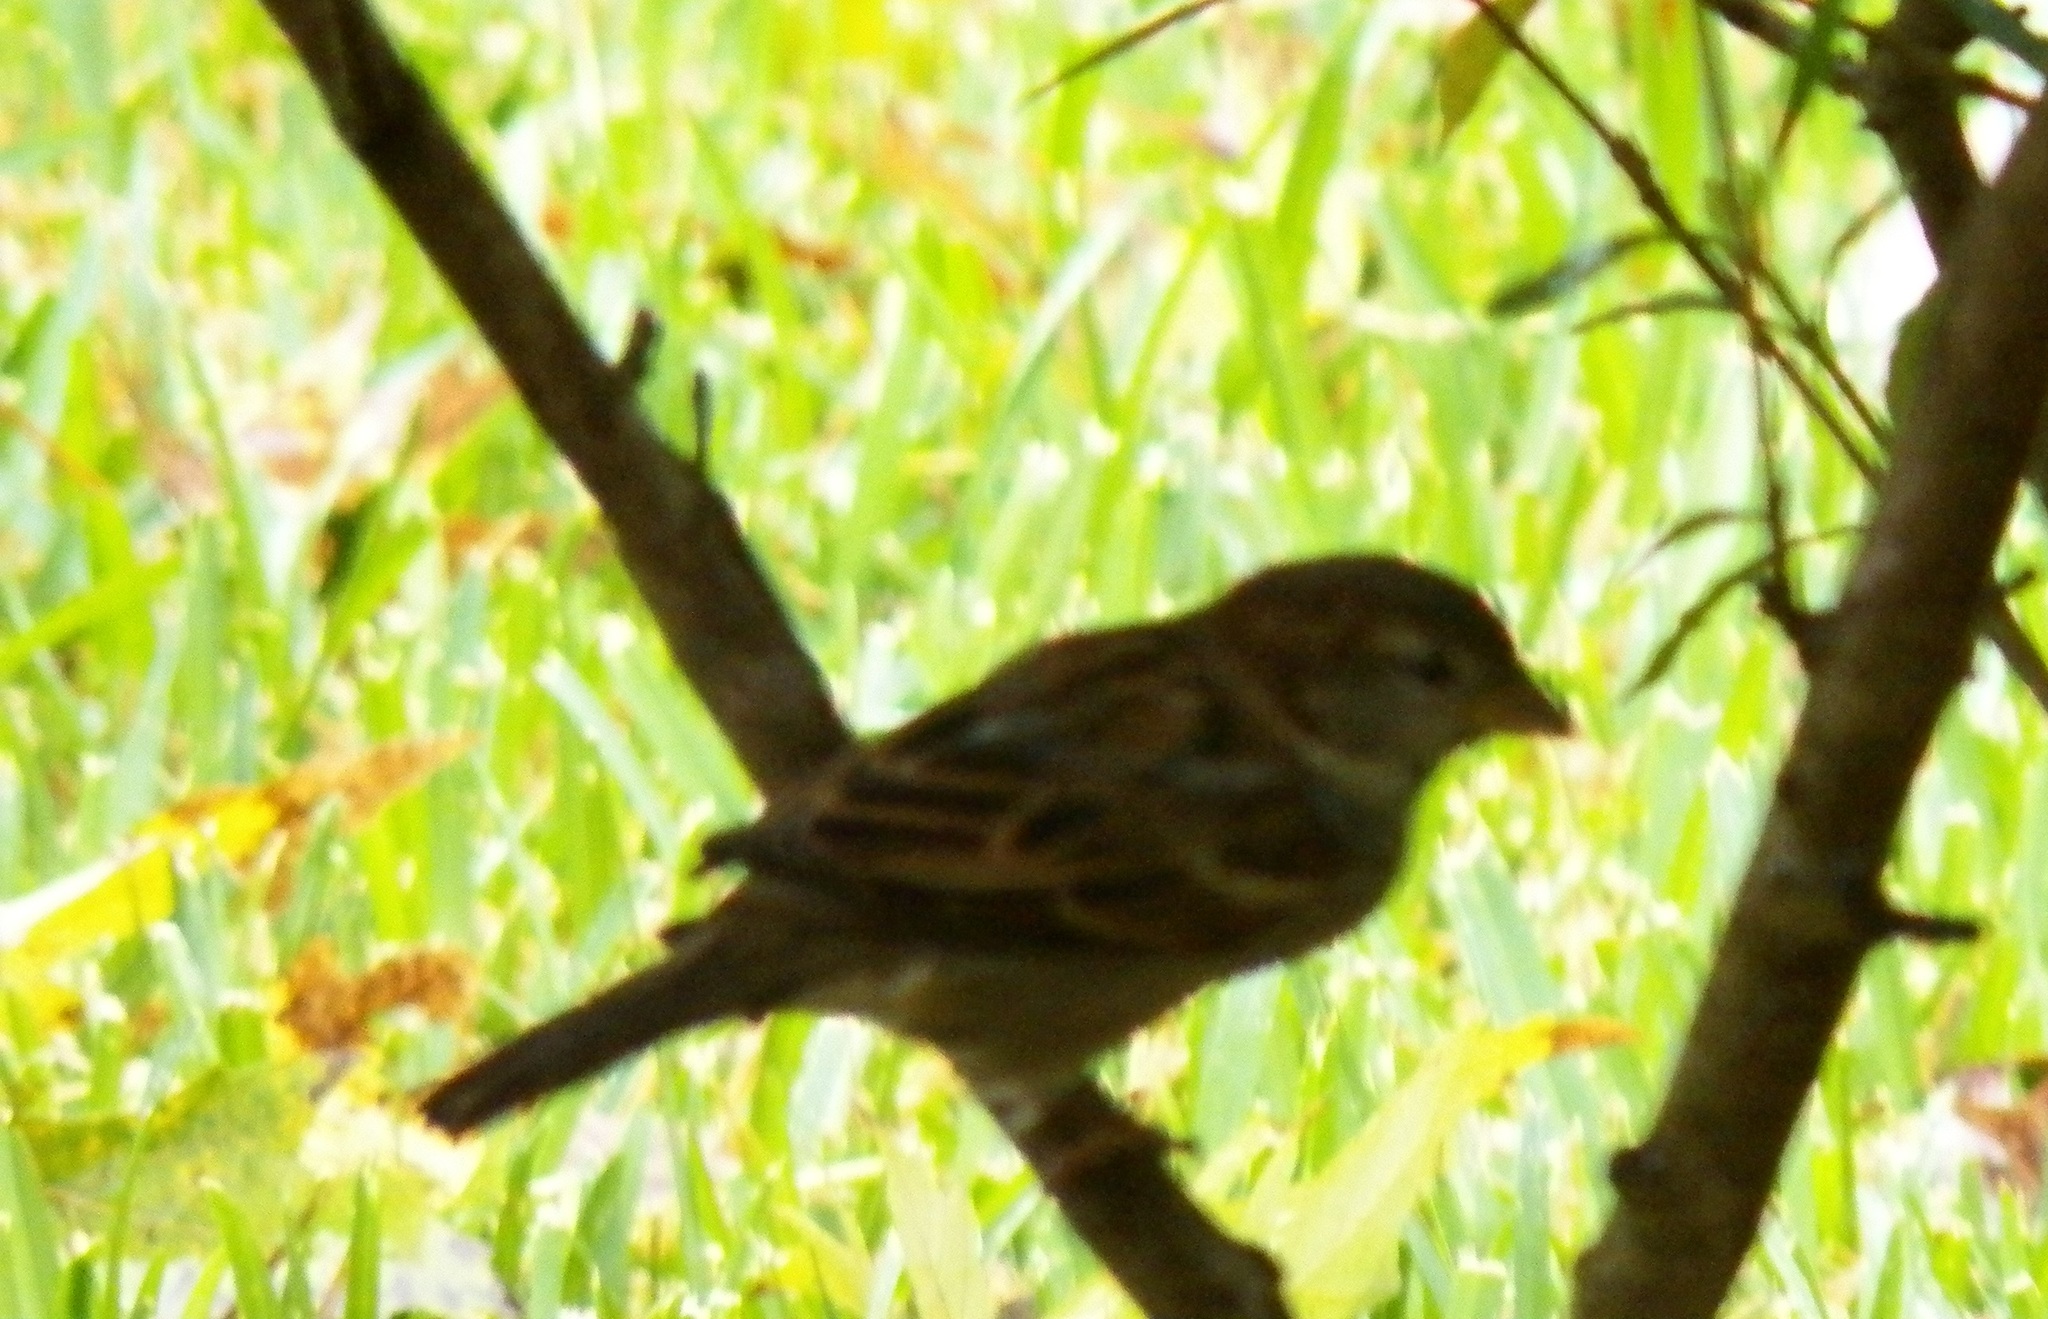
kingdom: Animalia
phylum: Chordata
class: Aves
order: Passeriformes
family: Passeridae
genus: Passer
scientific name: Passer domesticus
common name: House sparrow
